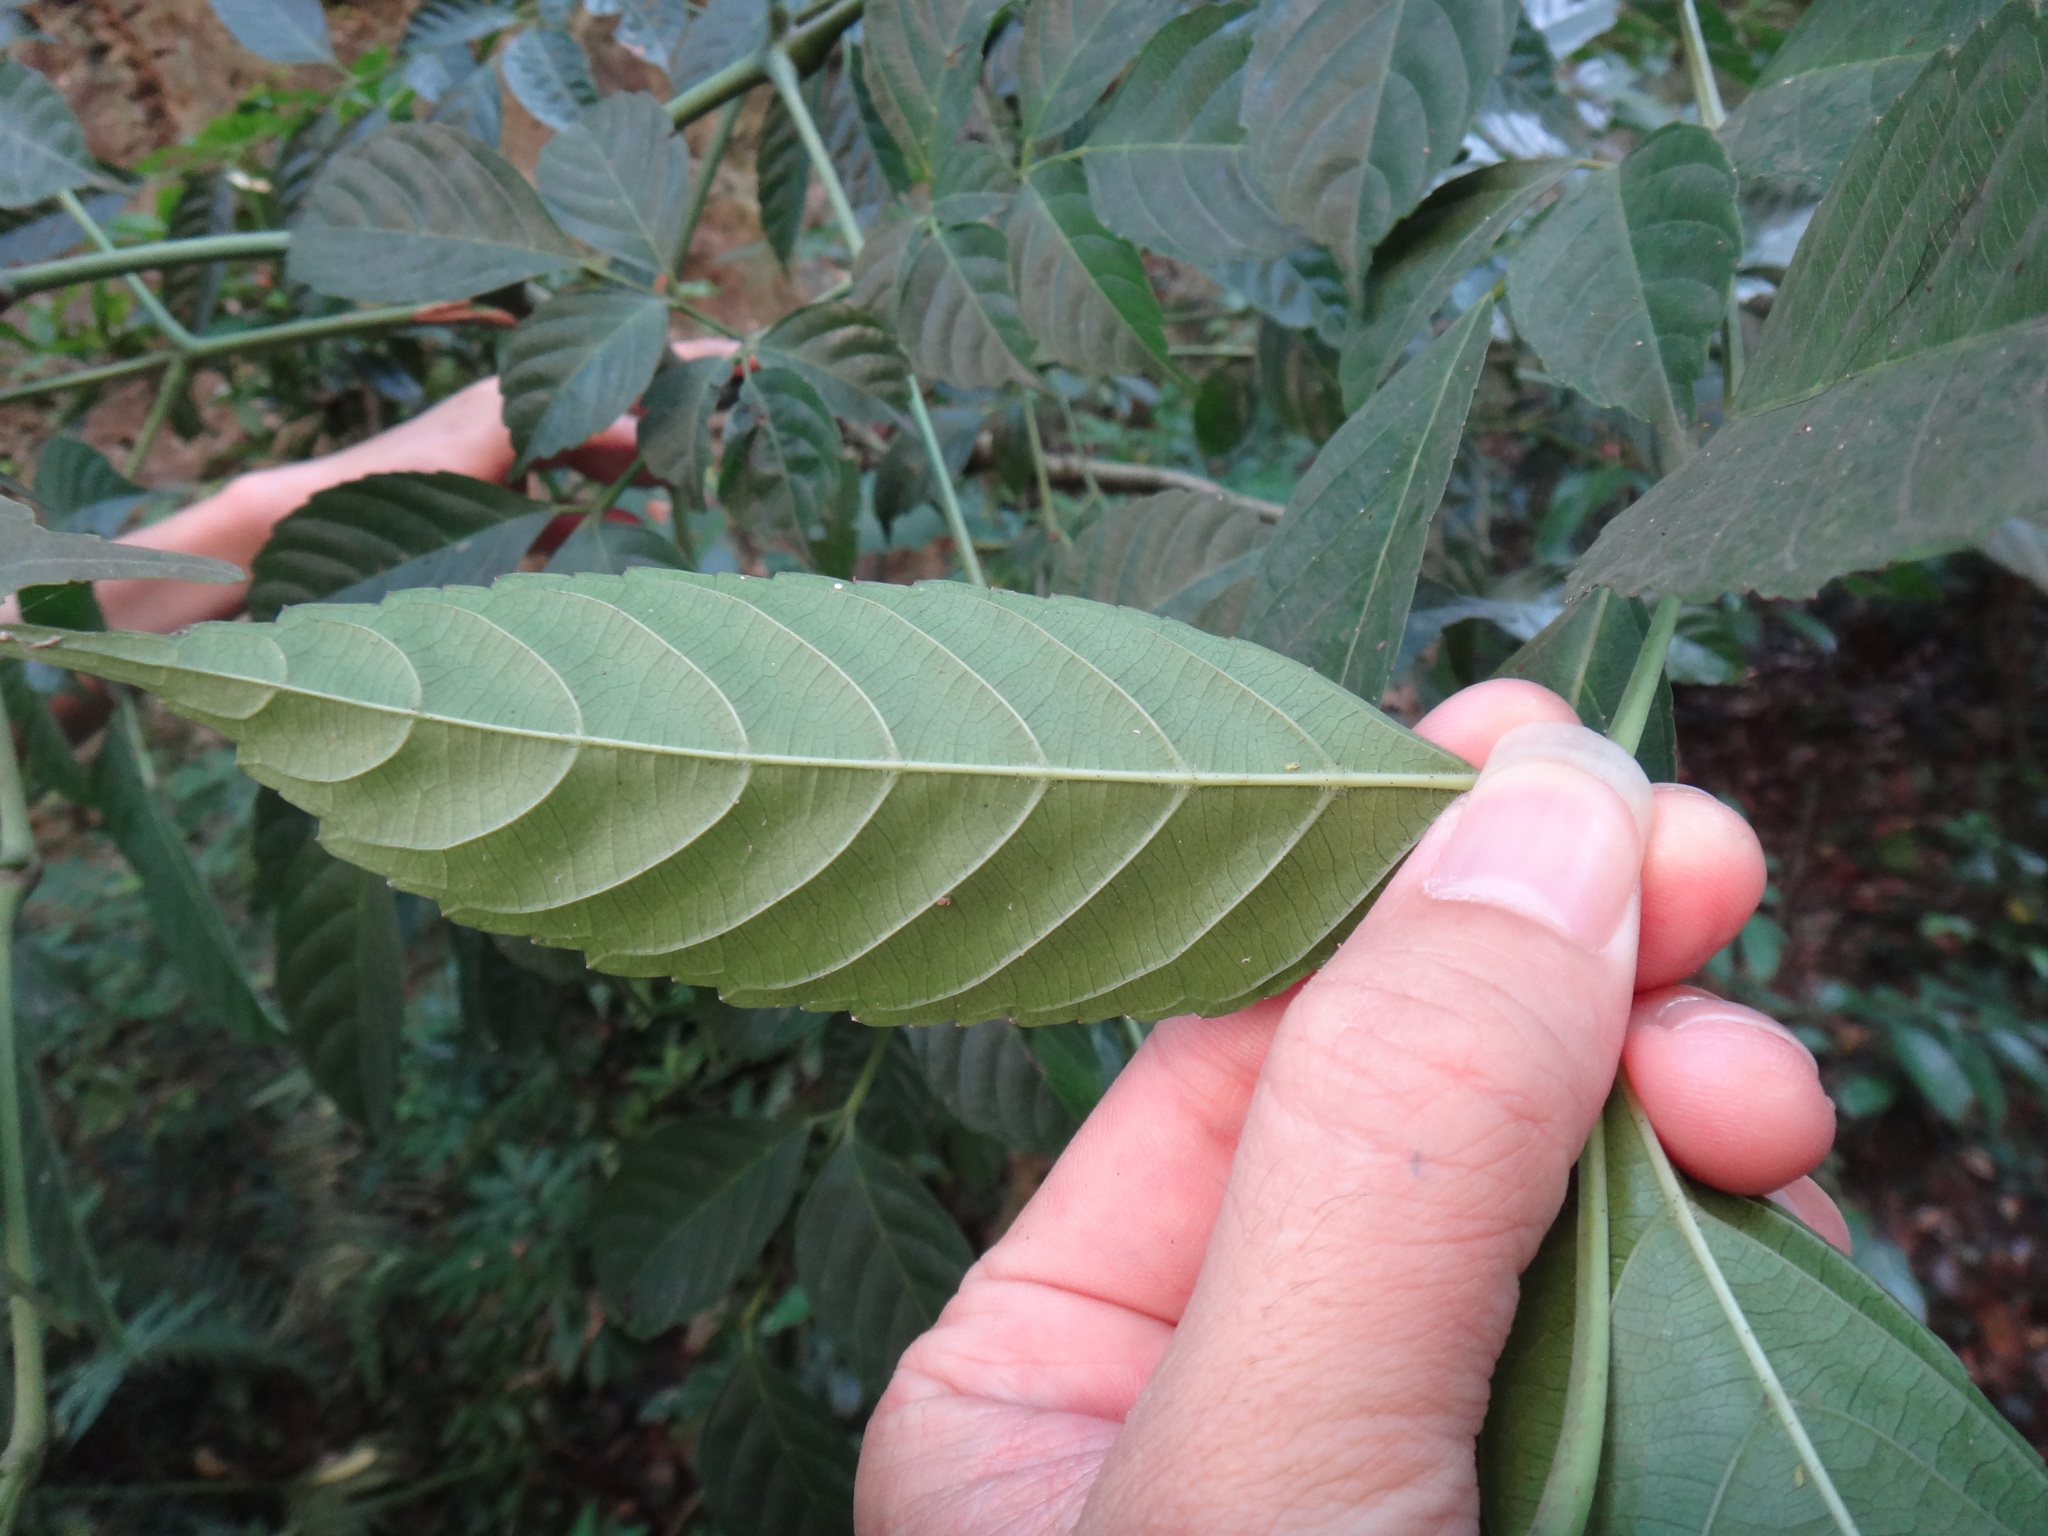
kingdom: Plantae
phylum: Tracheophyta
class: Magnoliopsida
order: Vitales
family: Vitaceae
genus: Leea
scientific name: Leea guineensis
